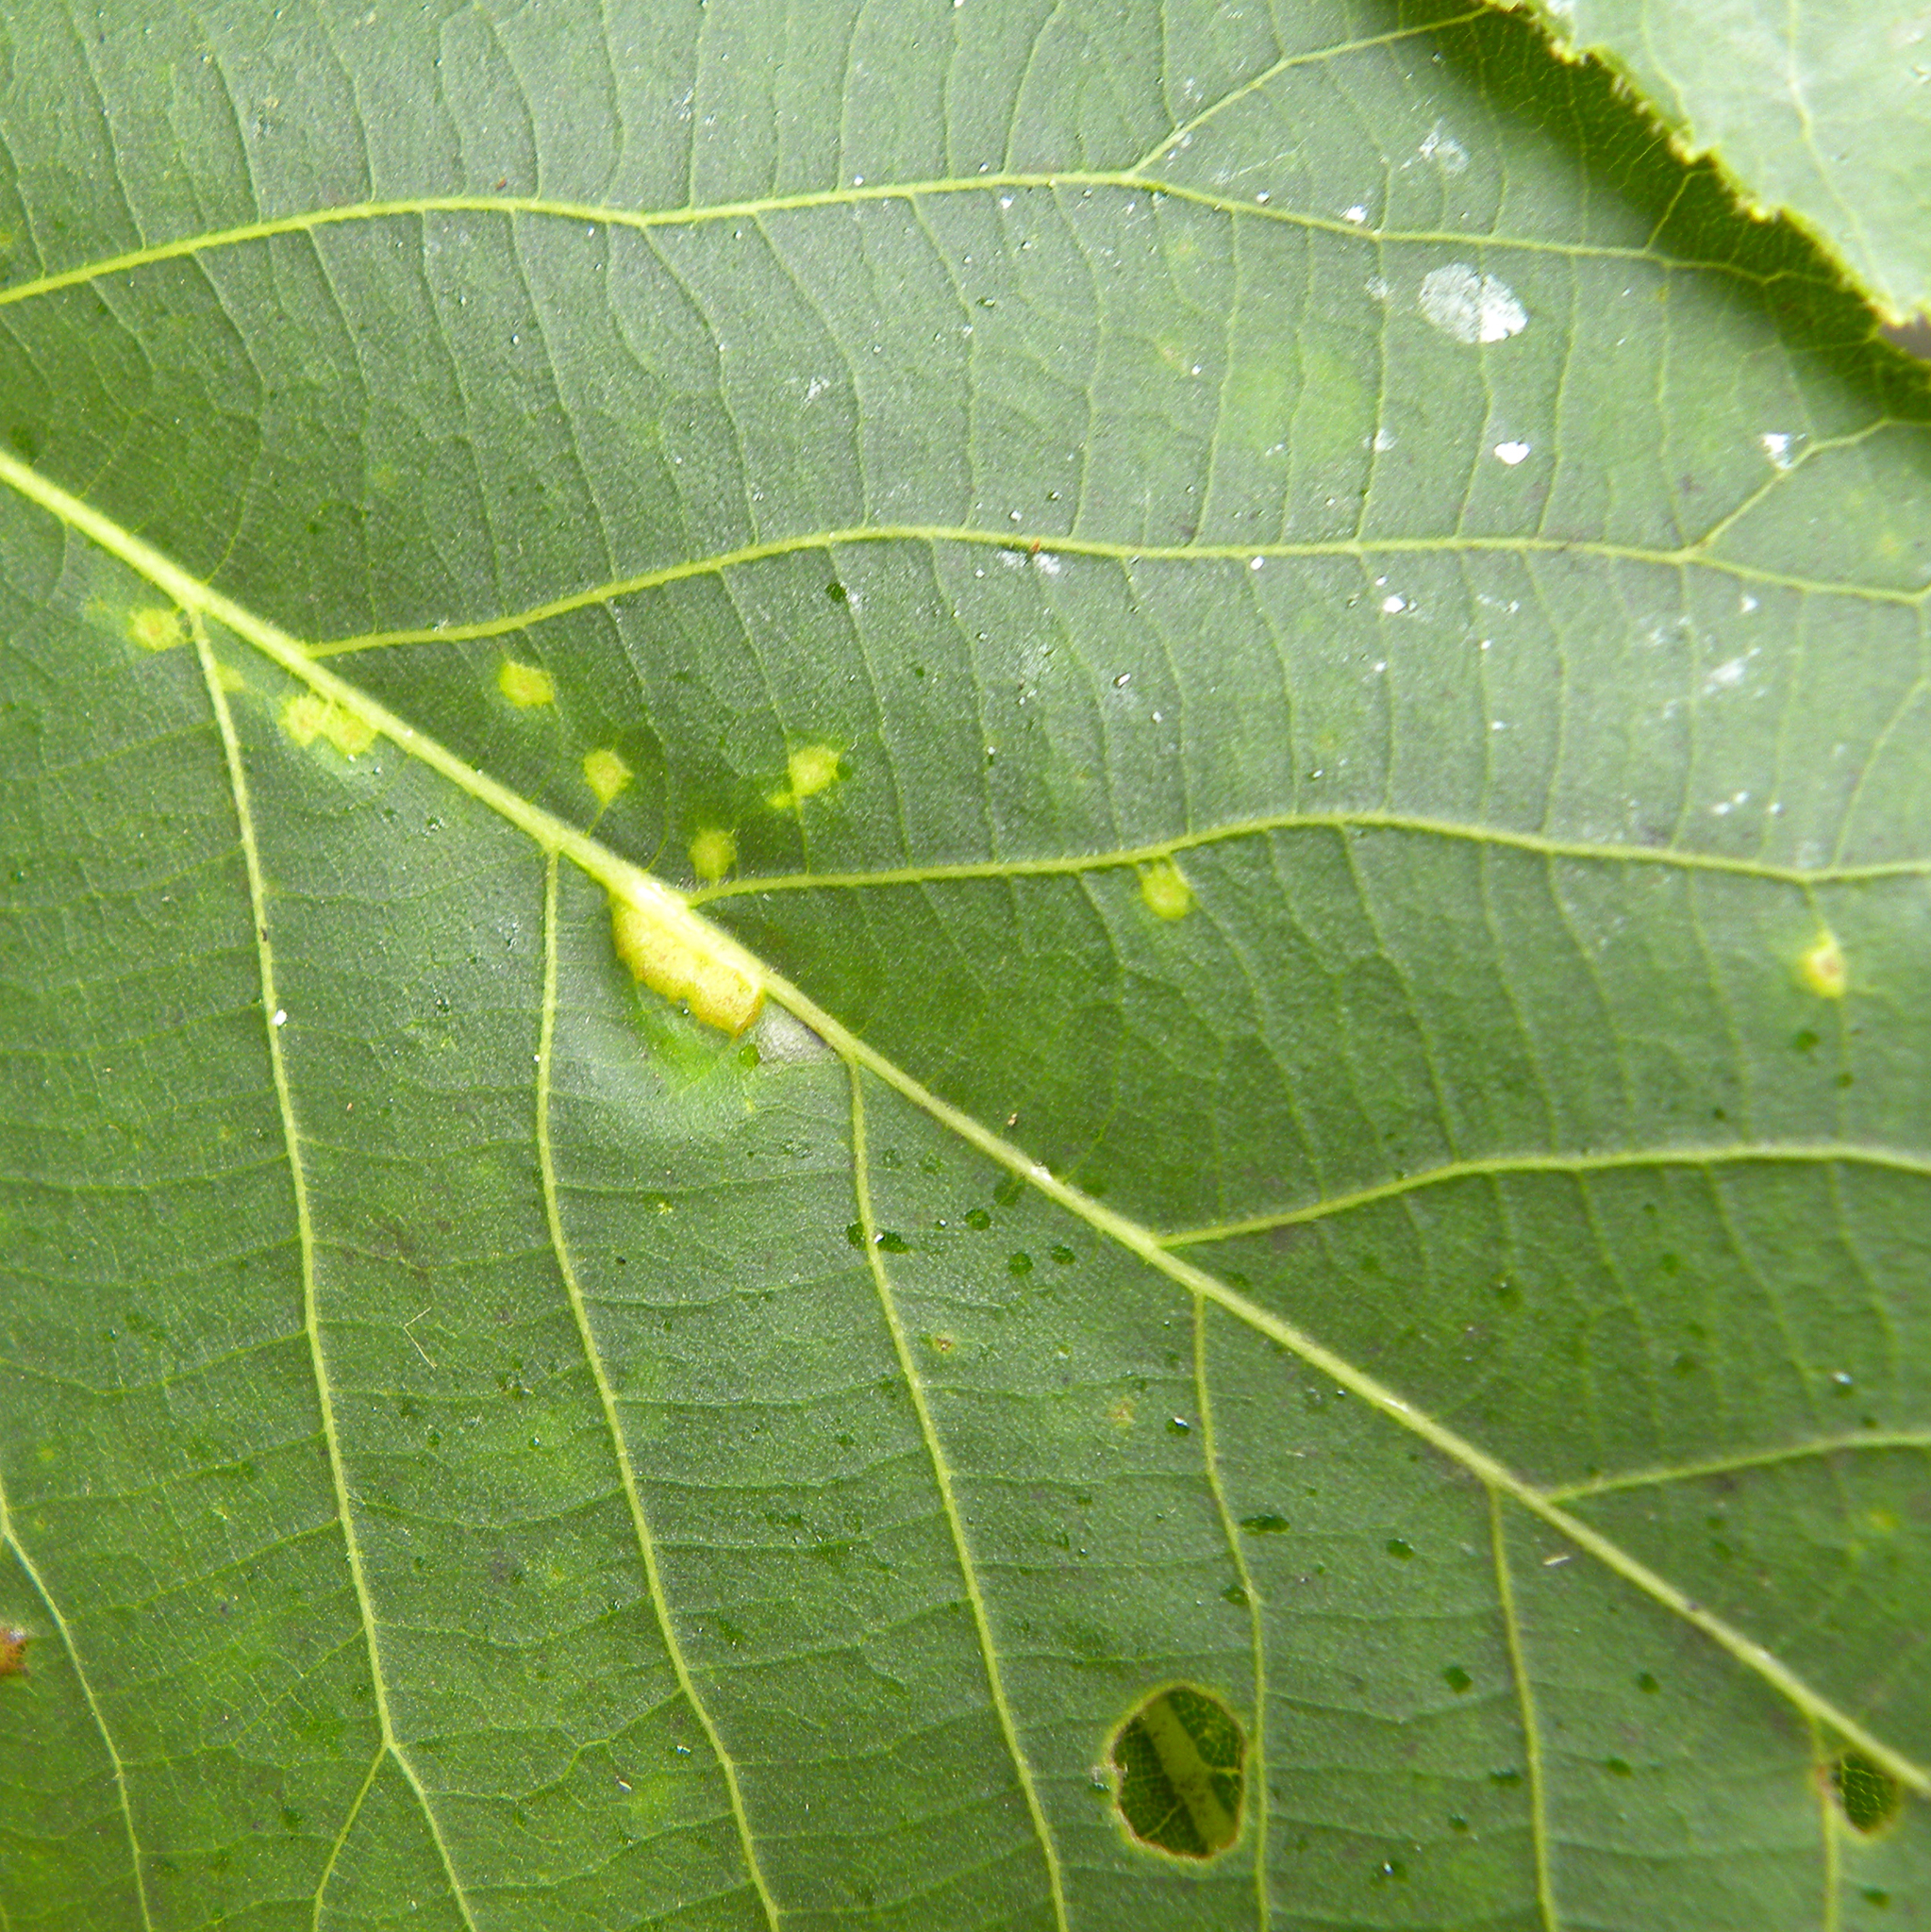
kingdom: Animalia
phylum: Arthropoda
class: Insecta
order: Diptera
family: Cecidomyiidae
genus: Caryomyia
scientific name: Caryomyia stellata
